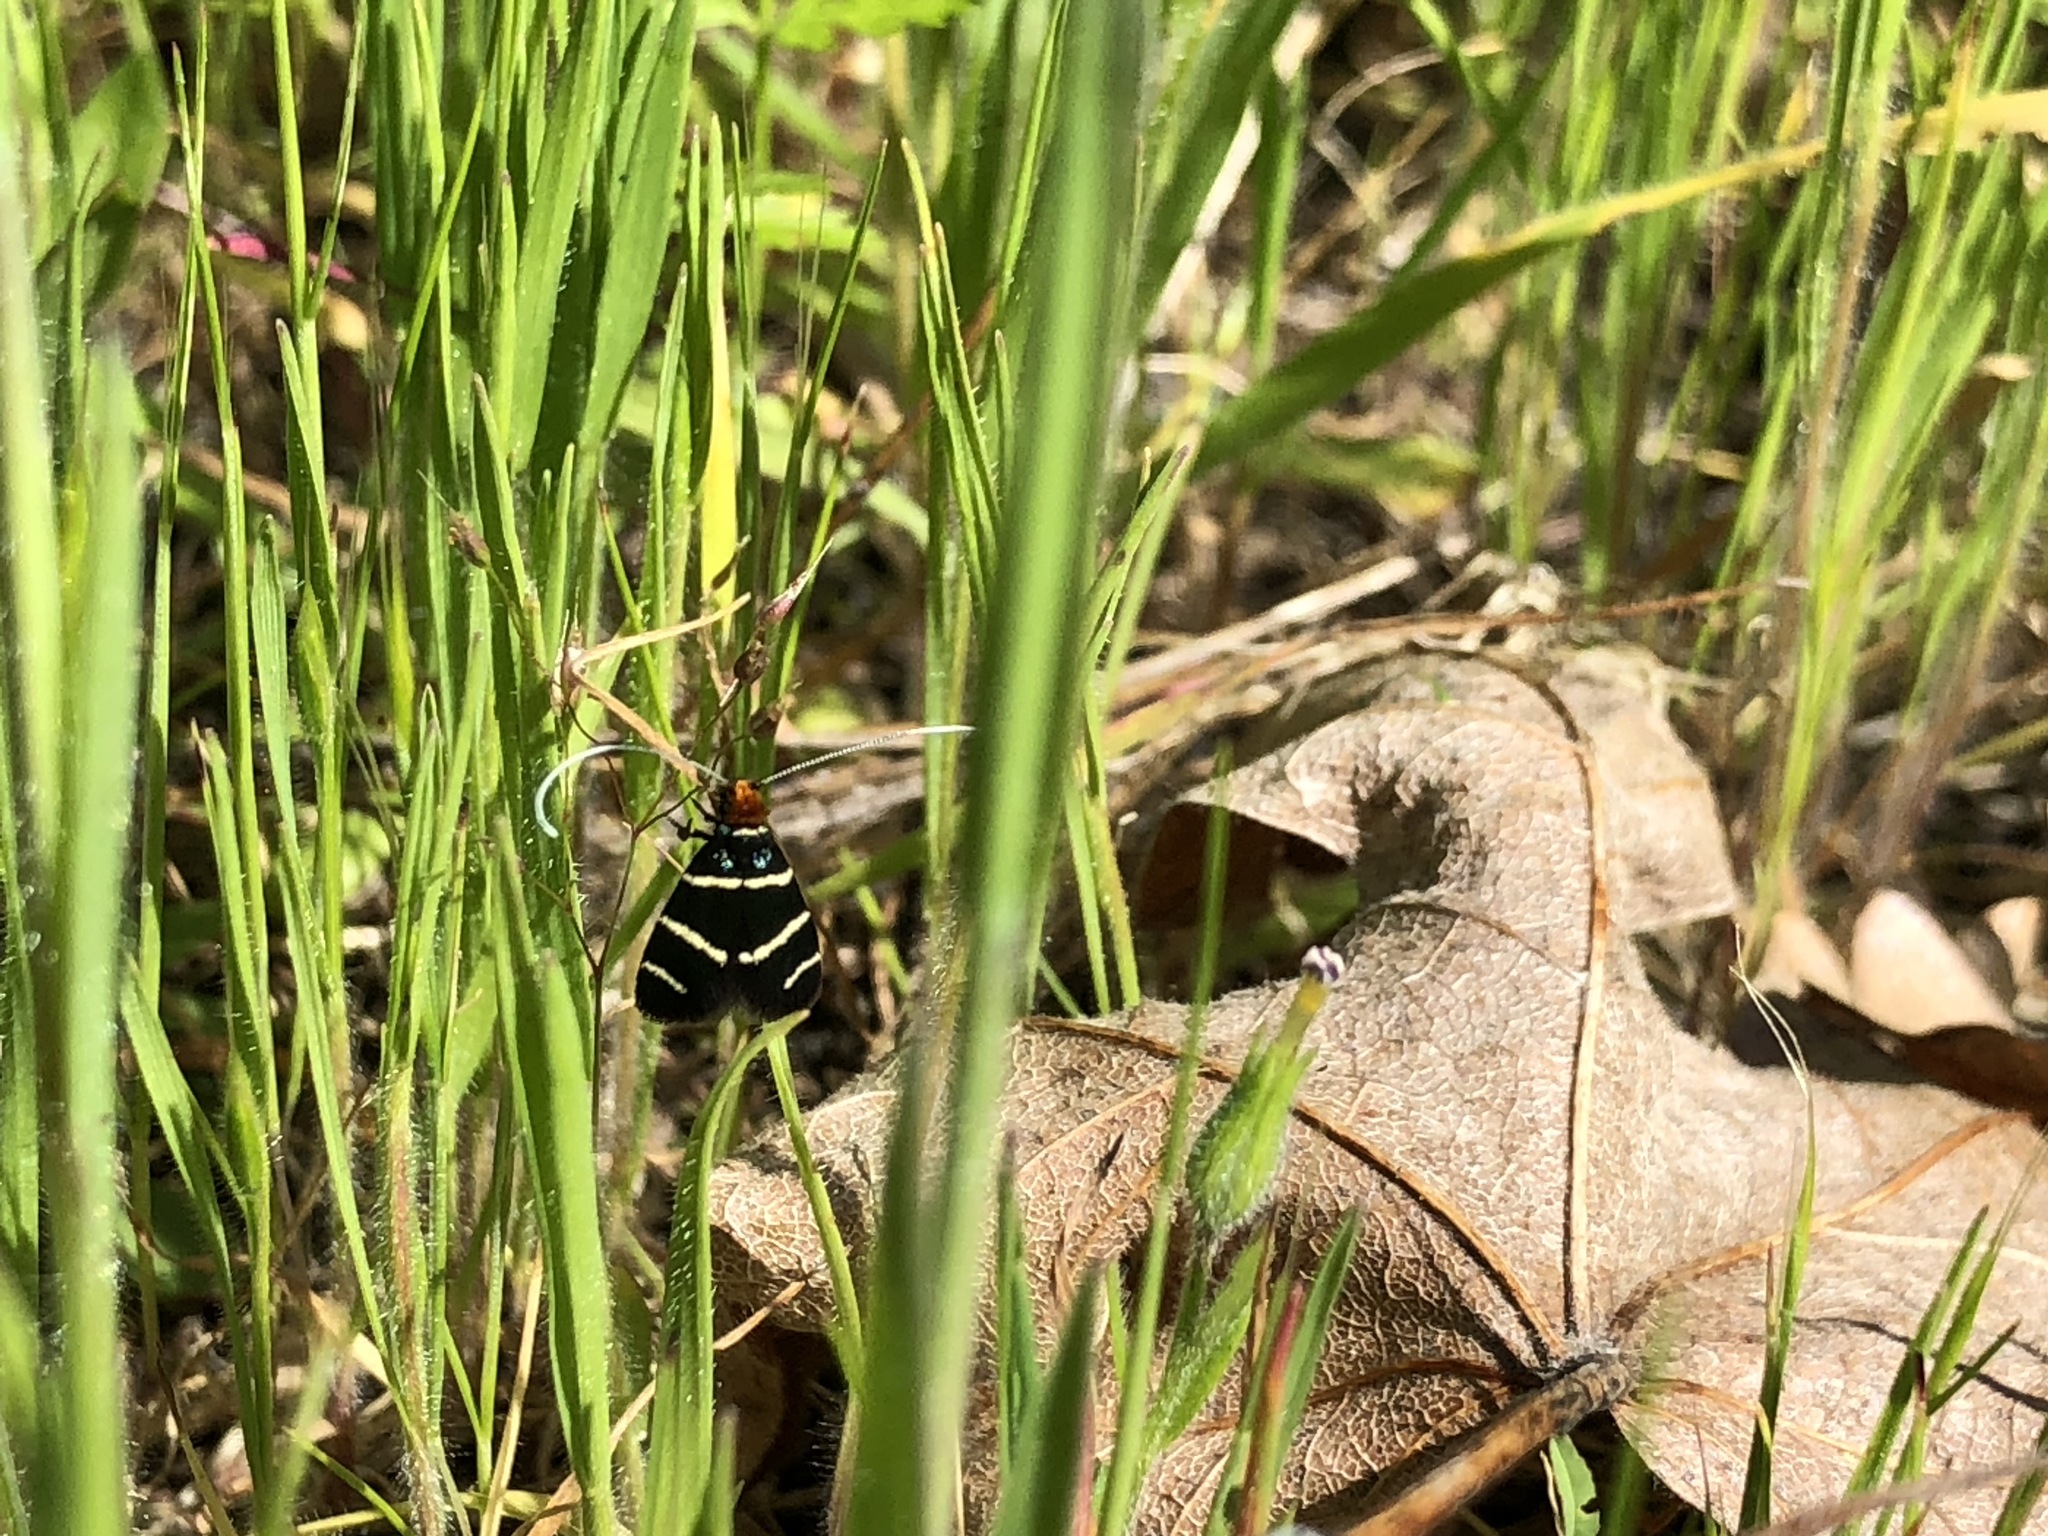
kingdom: Animalia
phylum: Arthropoda
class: Insecta
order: Lepidoptera
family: Adelidae
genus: Adela
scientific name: Adela trigrapha
